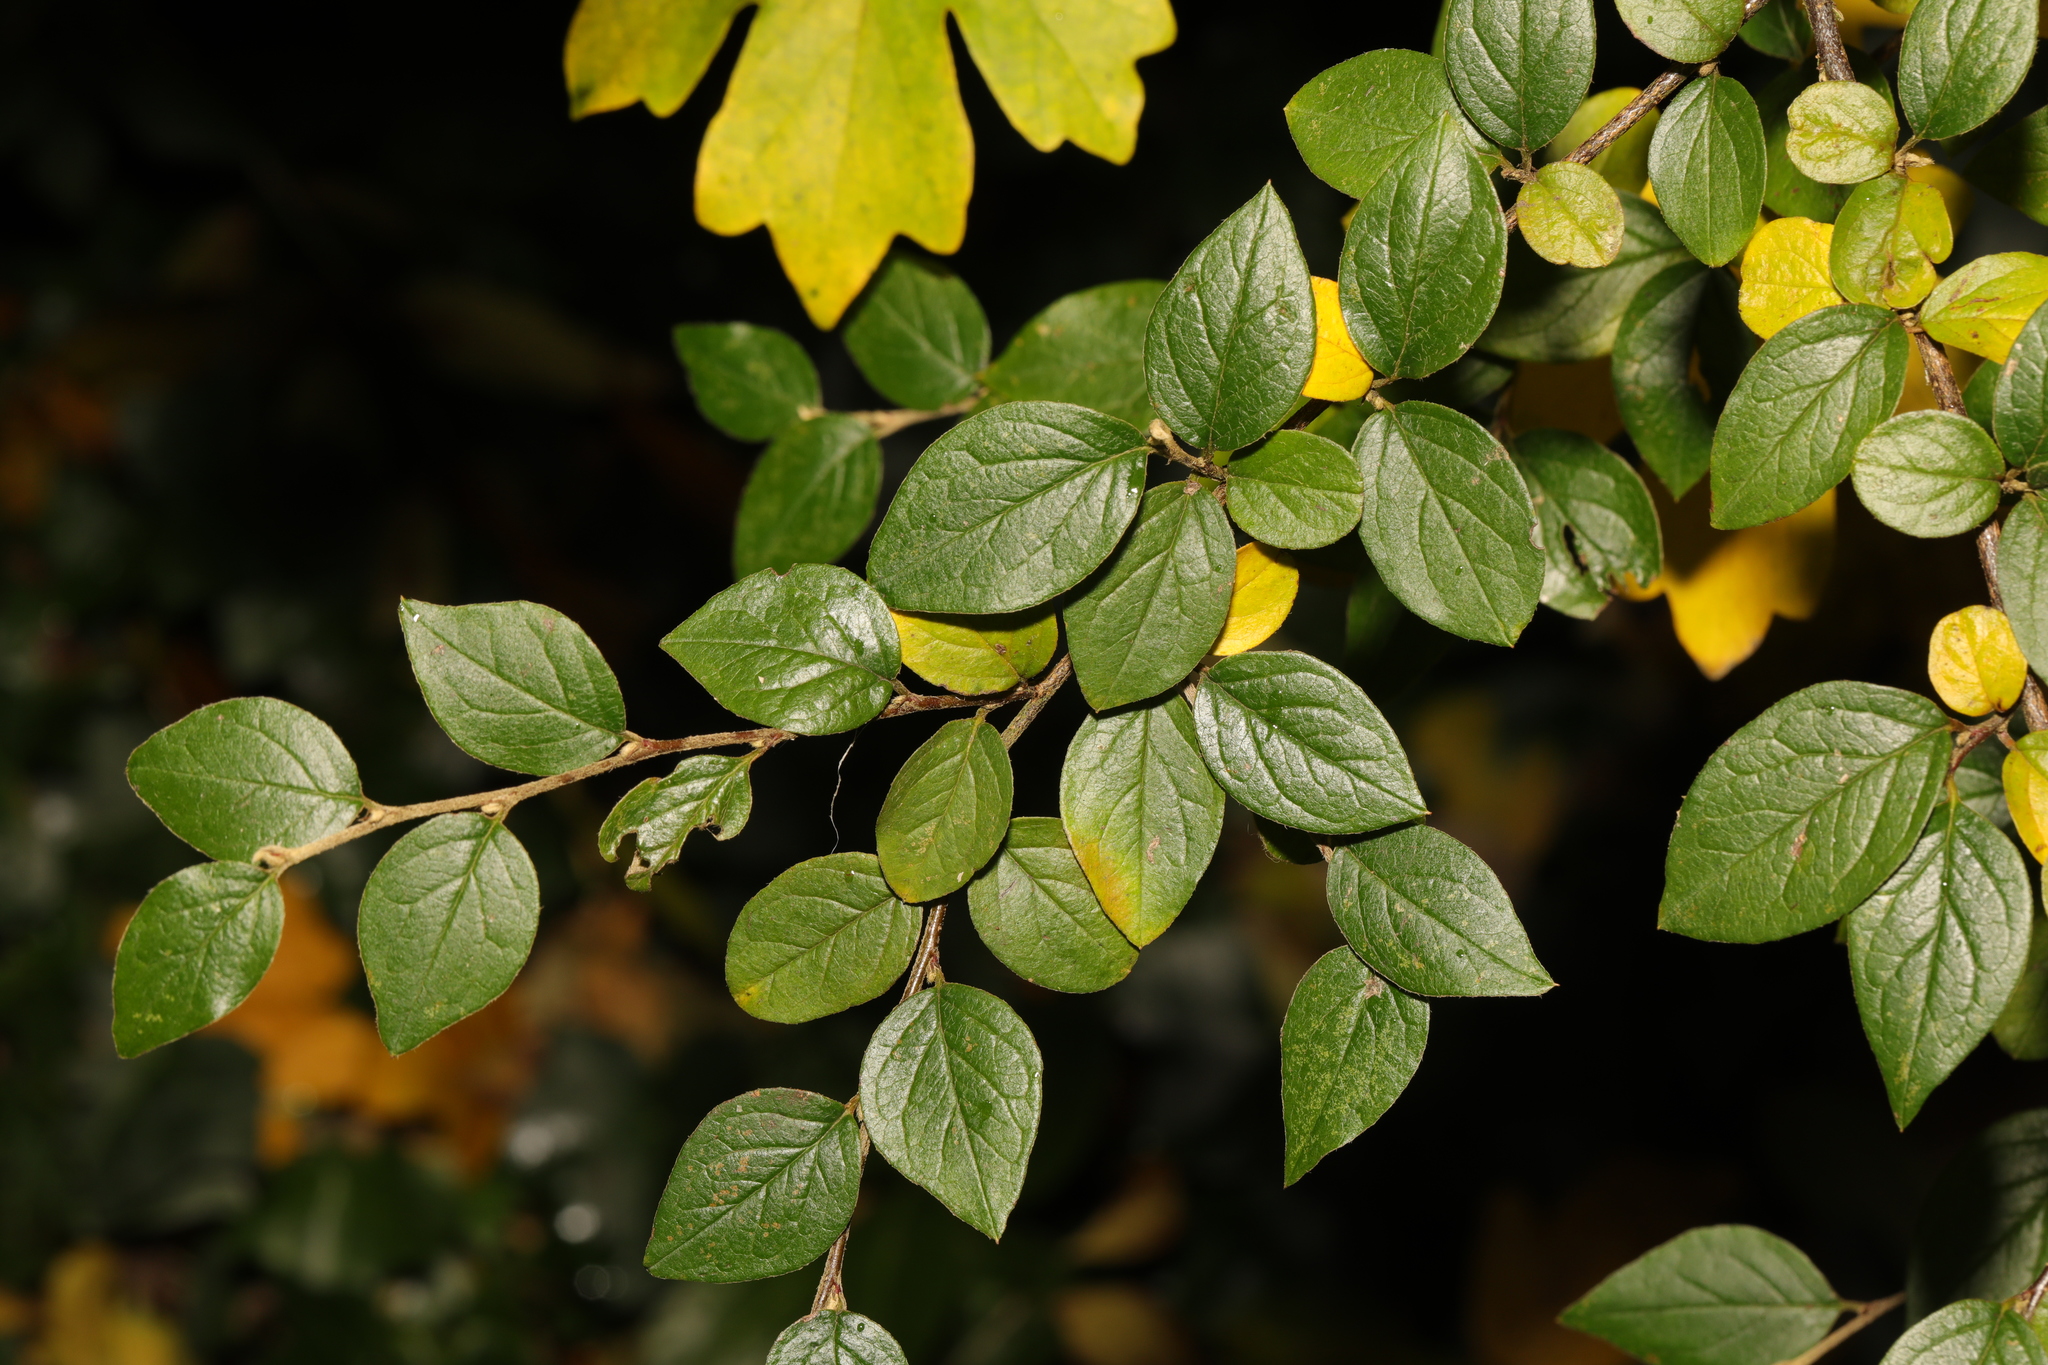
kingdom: Plantae
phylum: Tracheophyta
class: Magnoliopsida
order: Rosales
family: Rosaceae
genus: Cotoneaster
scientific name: Cotoneaster simonsii
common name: Himalayan cotoneaster
